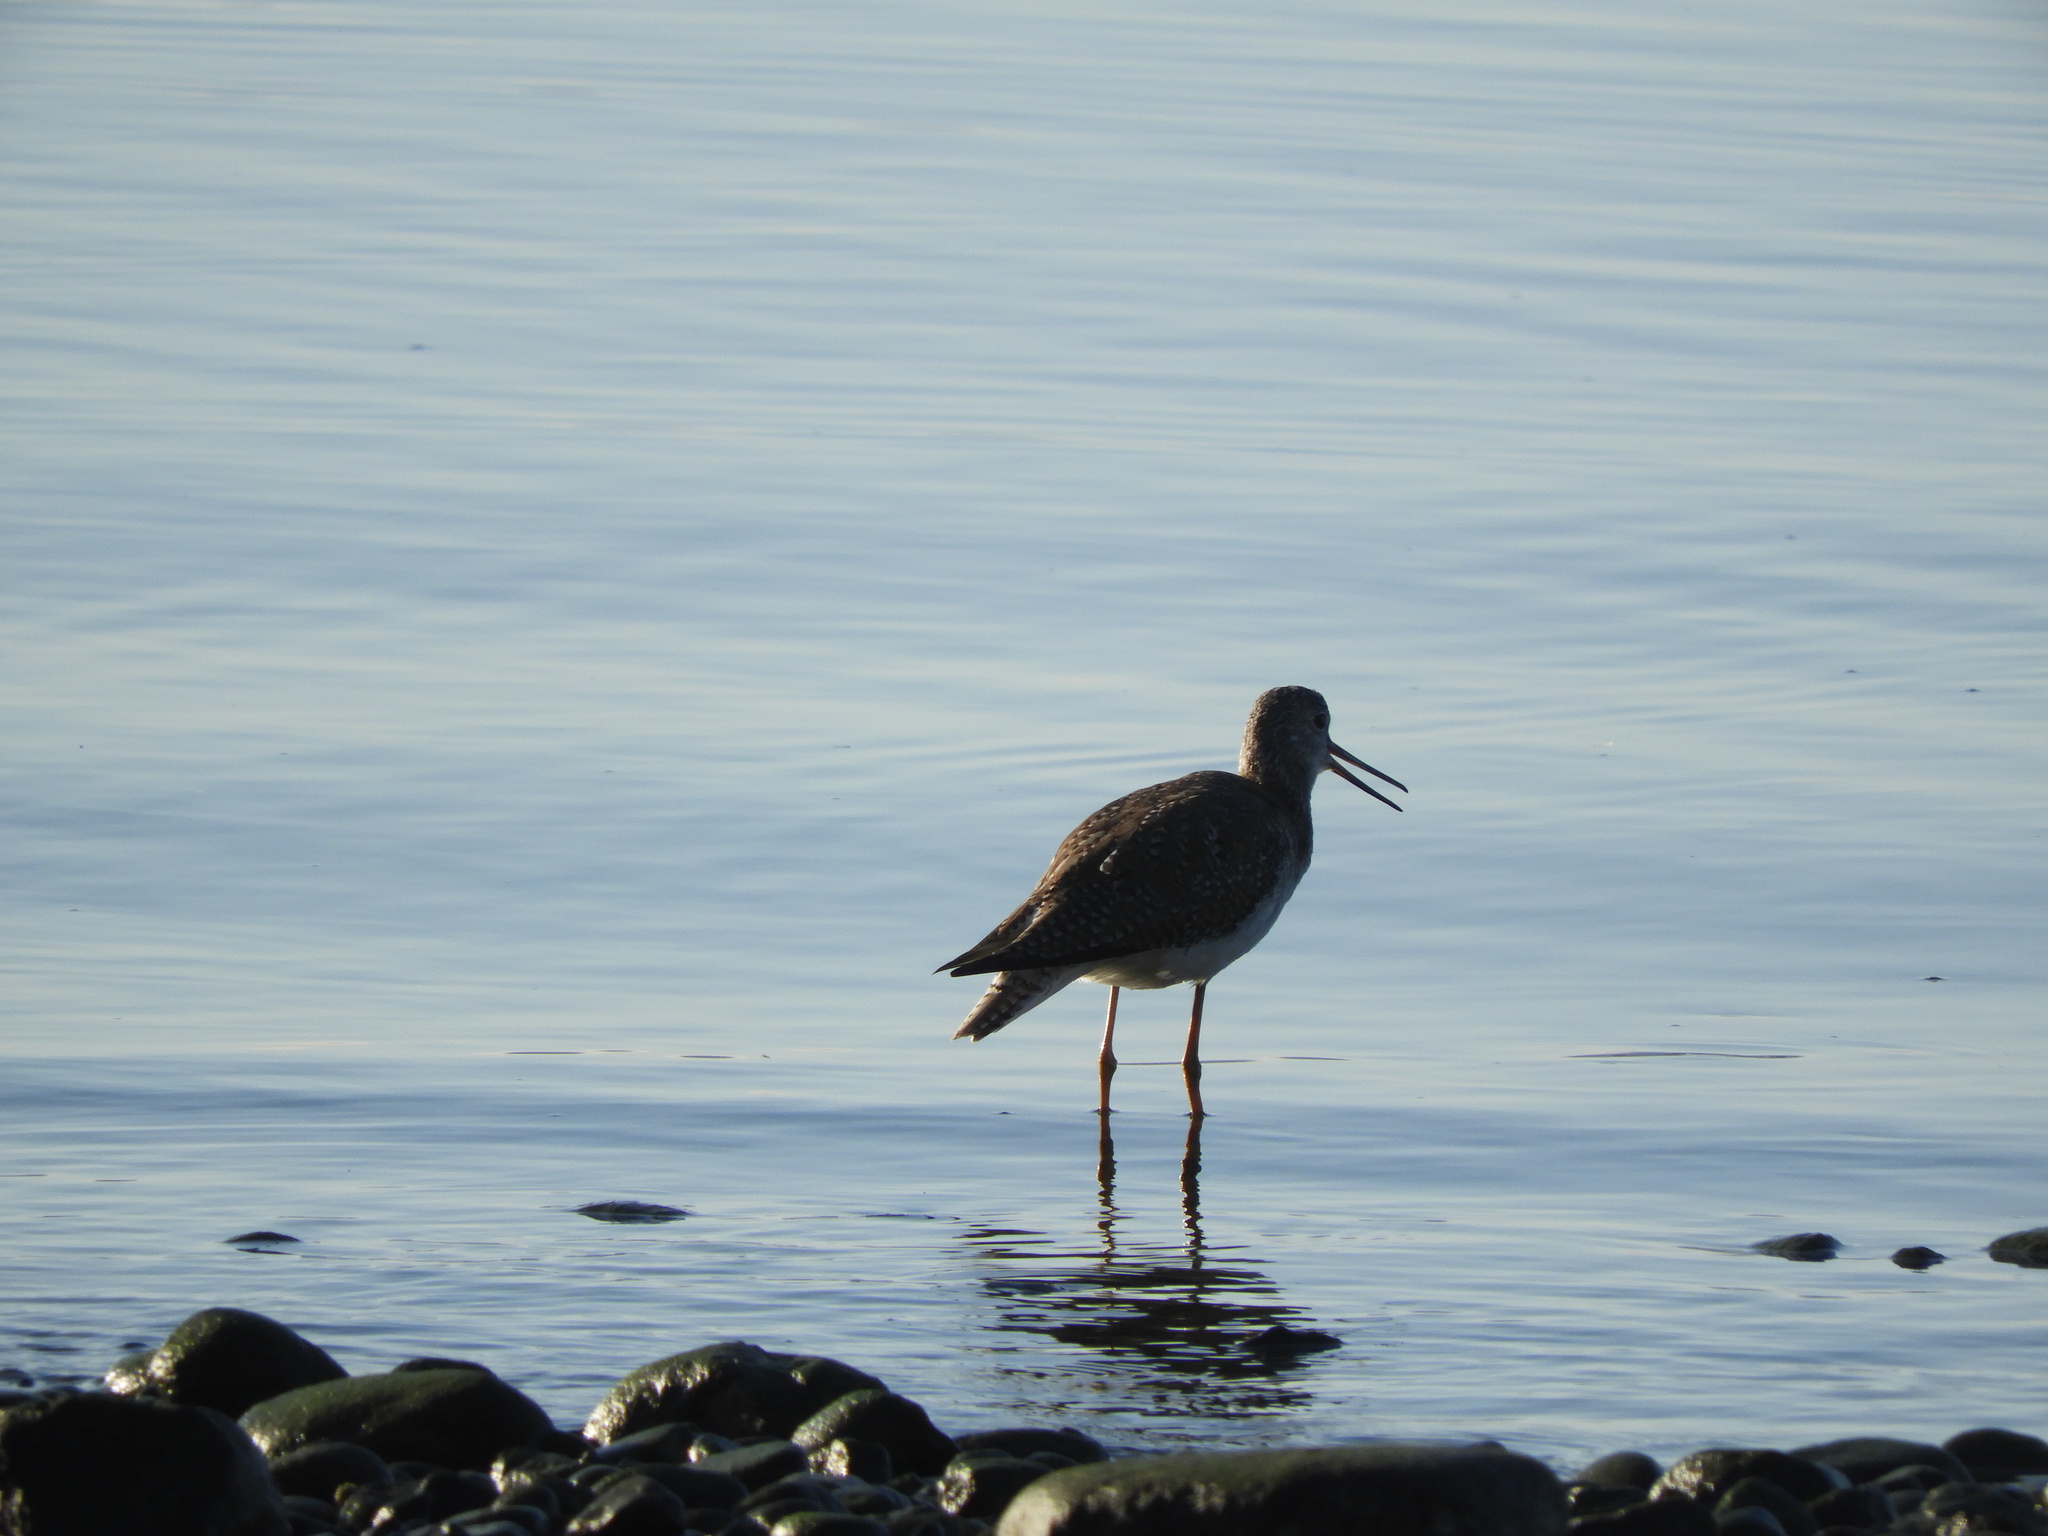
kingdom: Animalia
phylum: Chordata
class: Aves
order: Charadriiformes
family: Scolopacidae
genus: Tringa
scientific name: Tringa melanoleuca
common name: Greater yellowlegs
